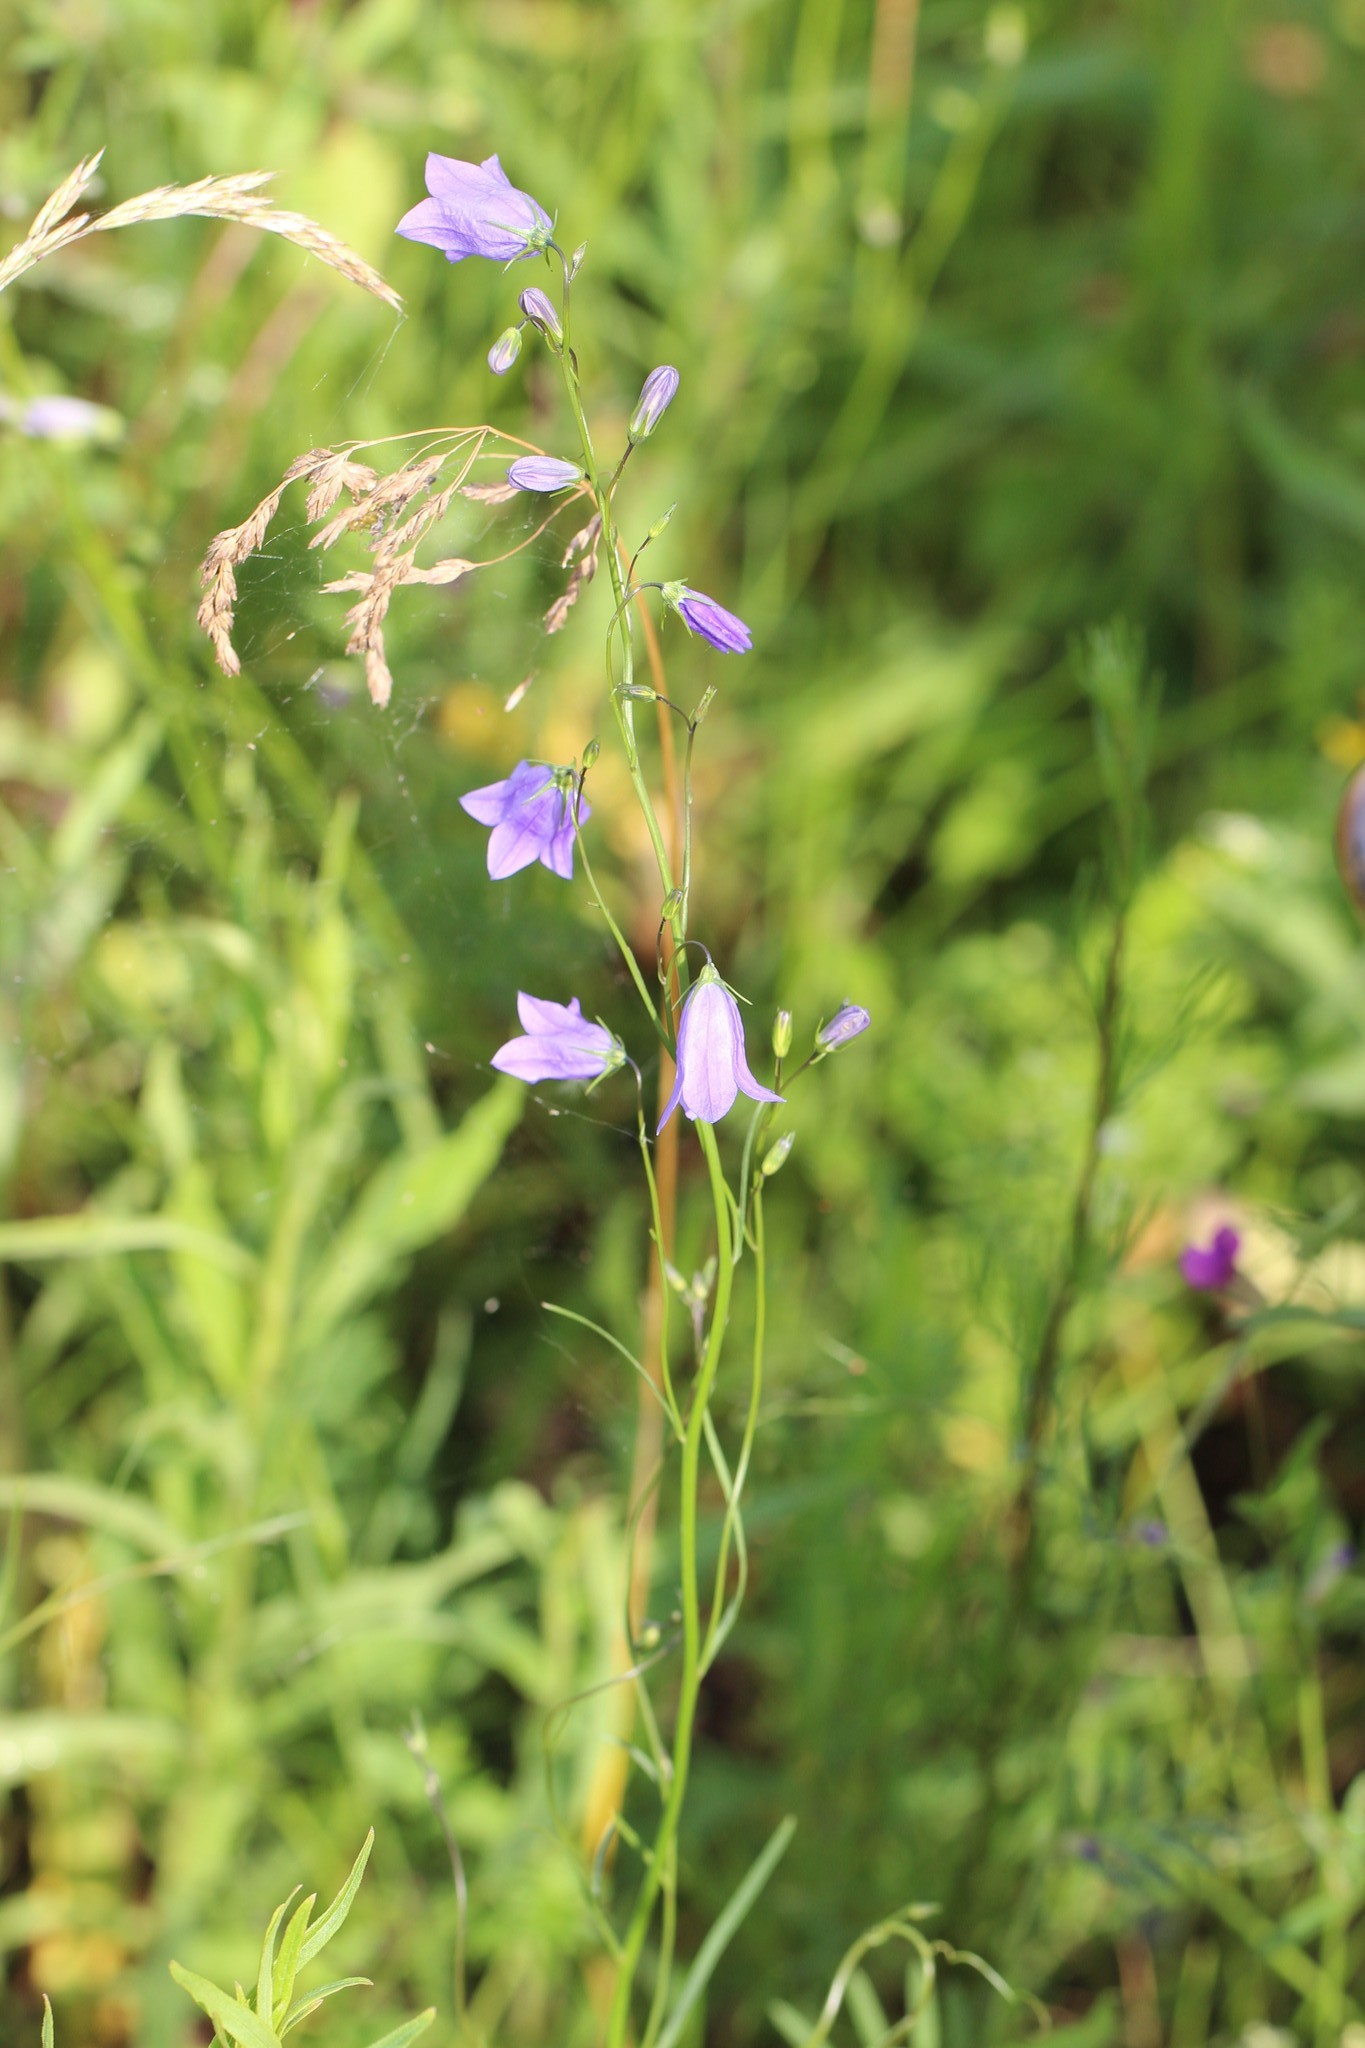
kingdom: Plantae
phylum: Tracheophyta
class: Magnoliopsida
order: Asterales
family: Campanulaceae
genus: Campanula
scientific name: Campanula rotundifolia
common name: Harebell
